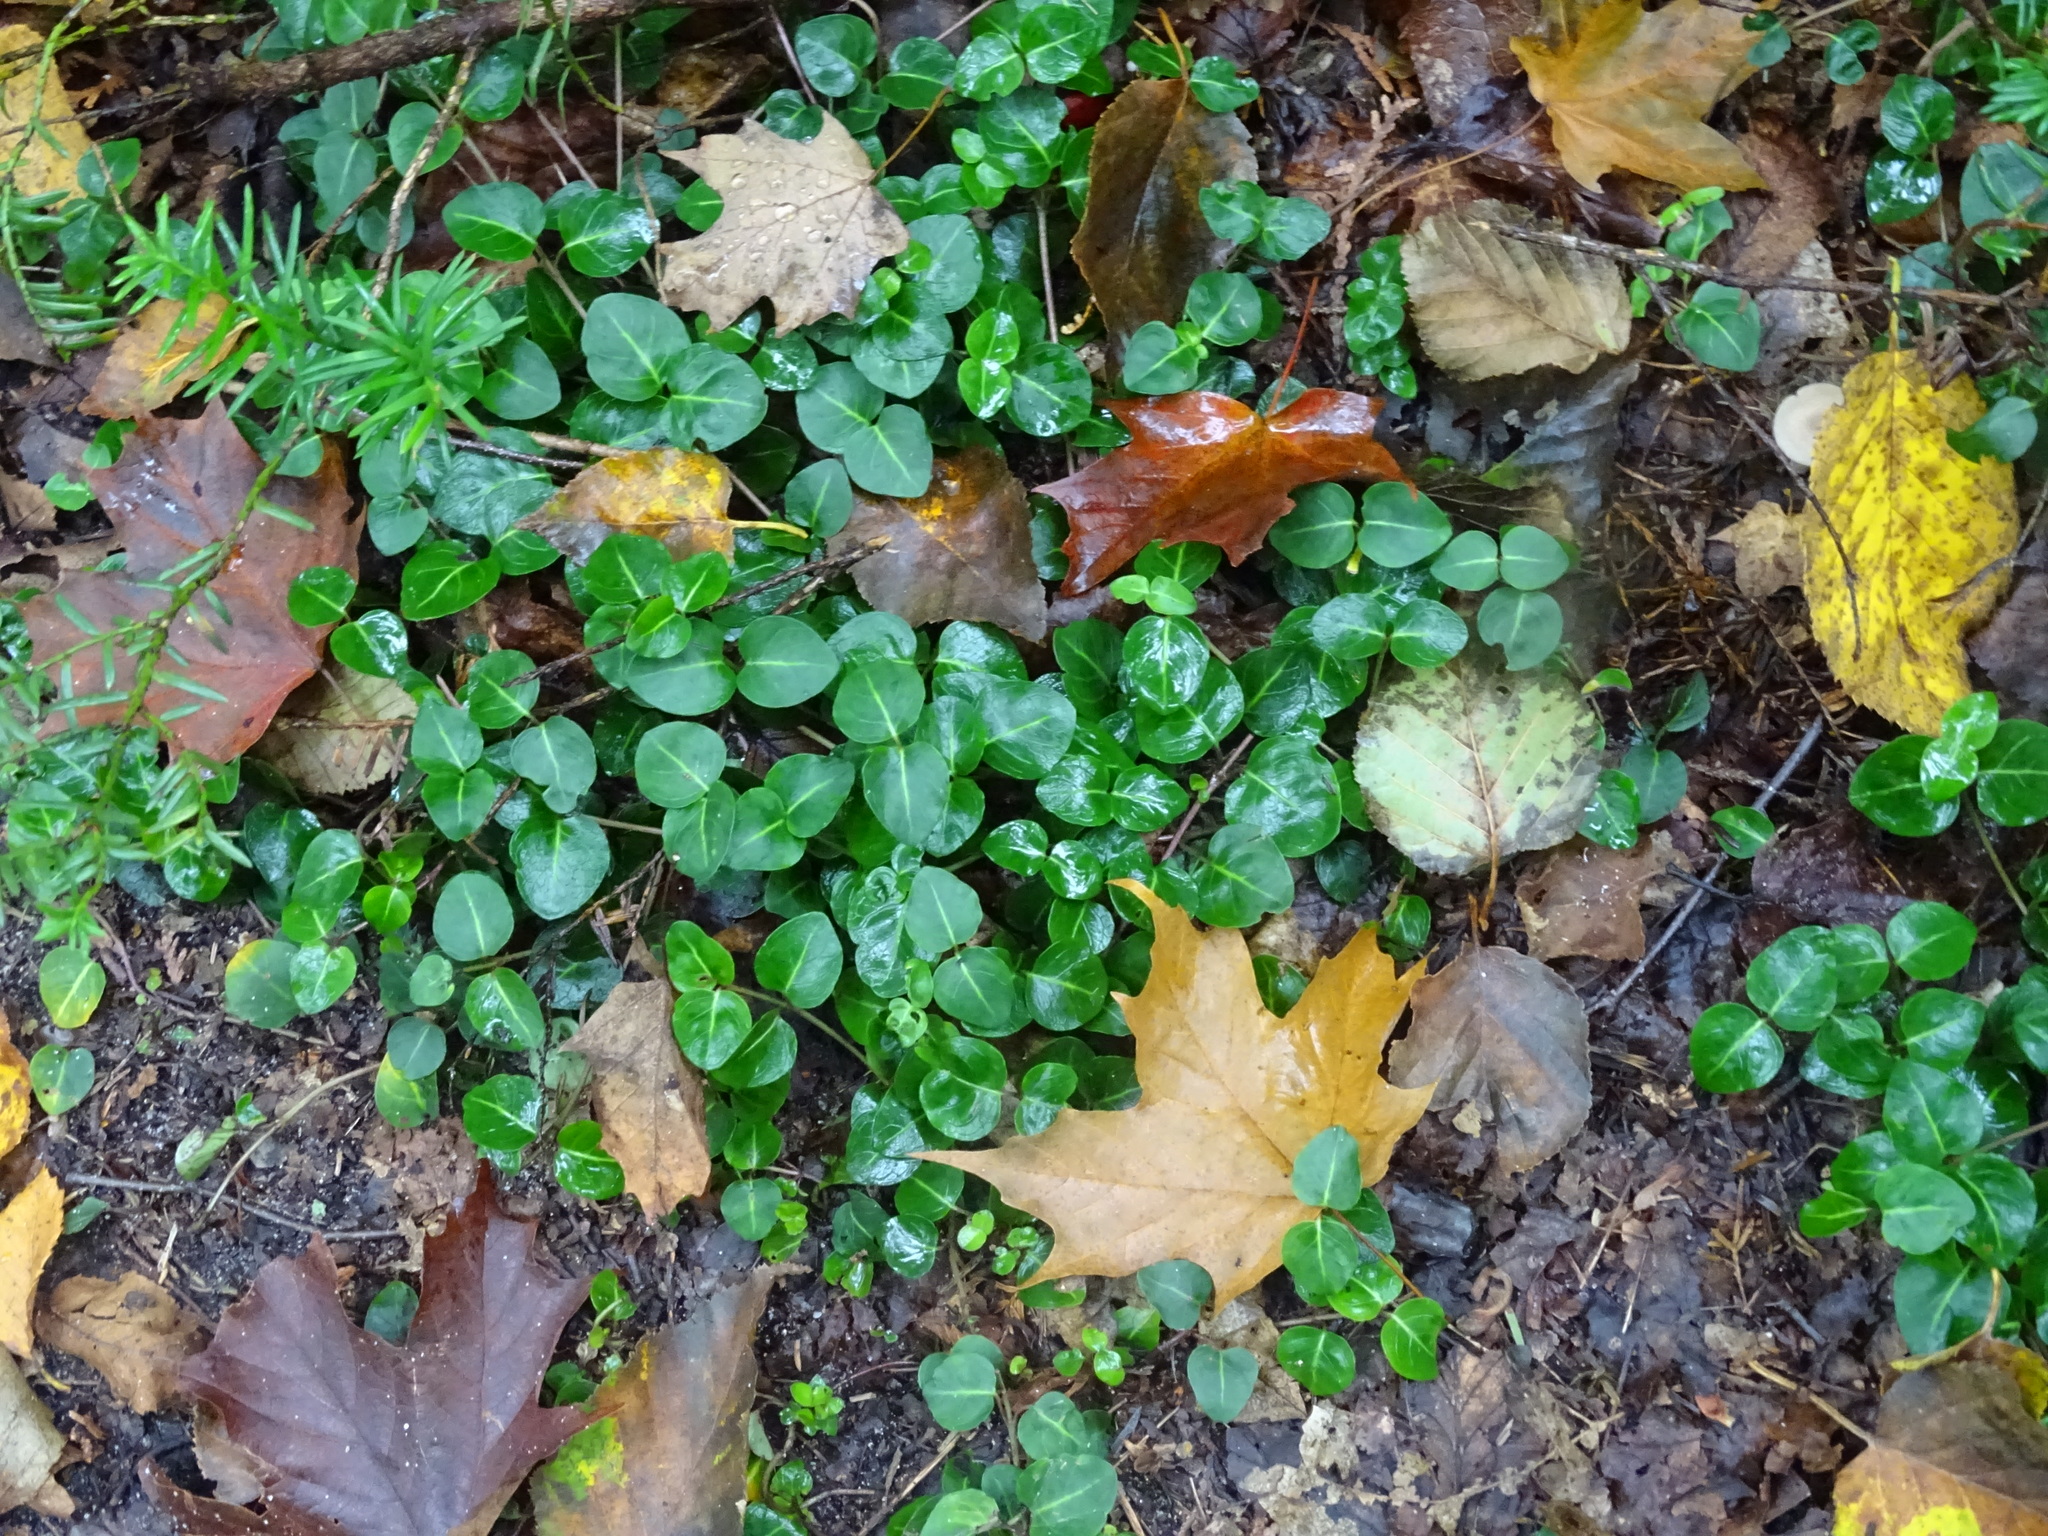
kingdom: Plantae
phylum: Tracheophyta
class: Magnoliopsida
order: Gentianales
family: Rubiaceae
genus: Mitchella
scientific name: Mitchella repens
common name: Partridge-berry
